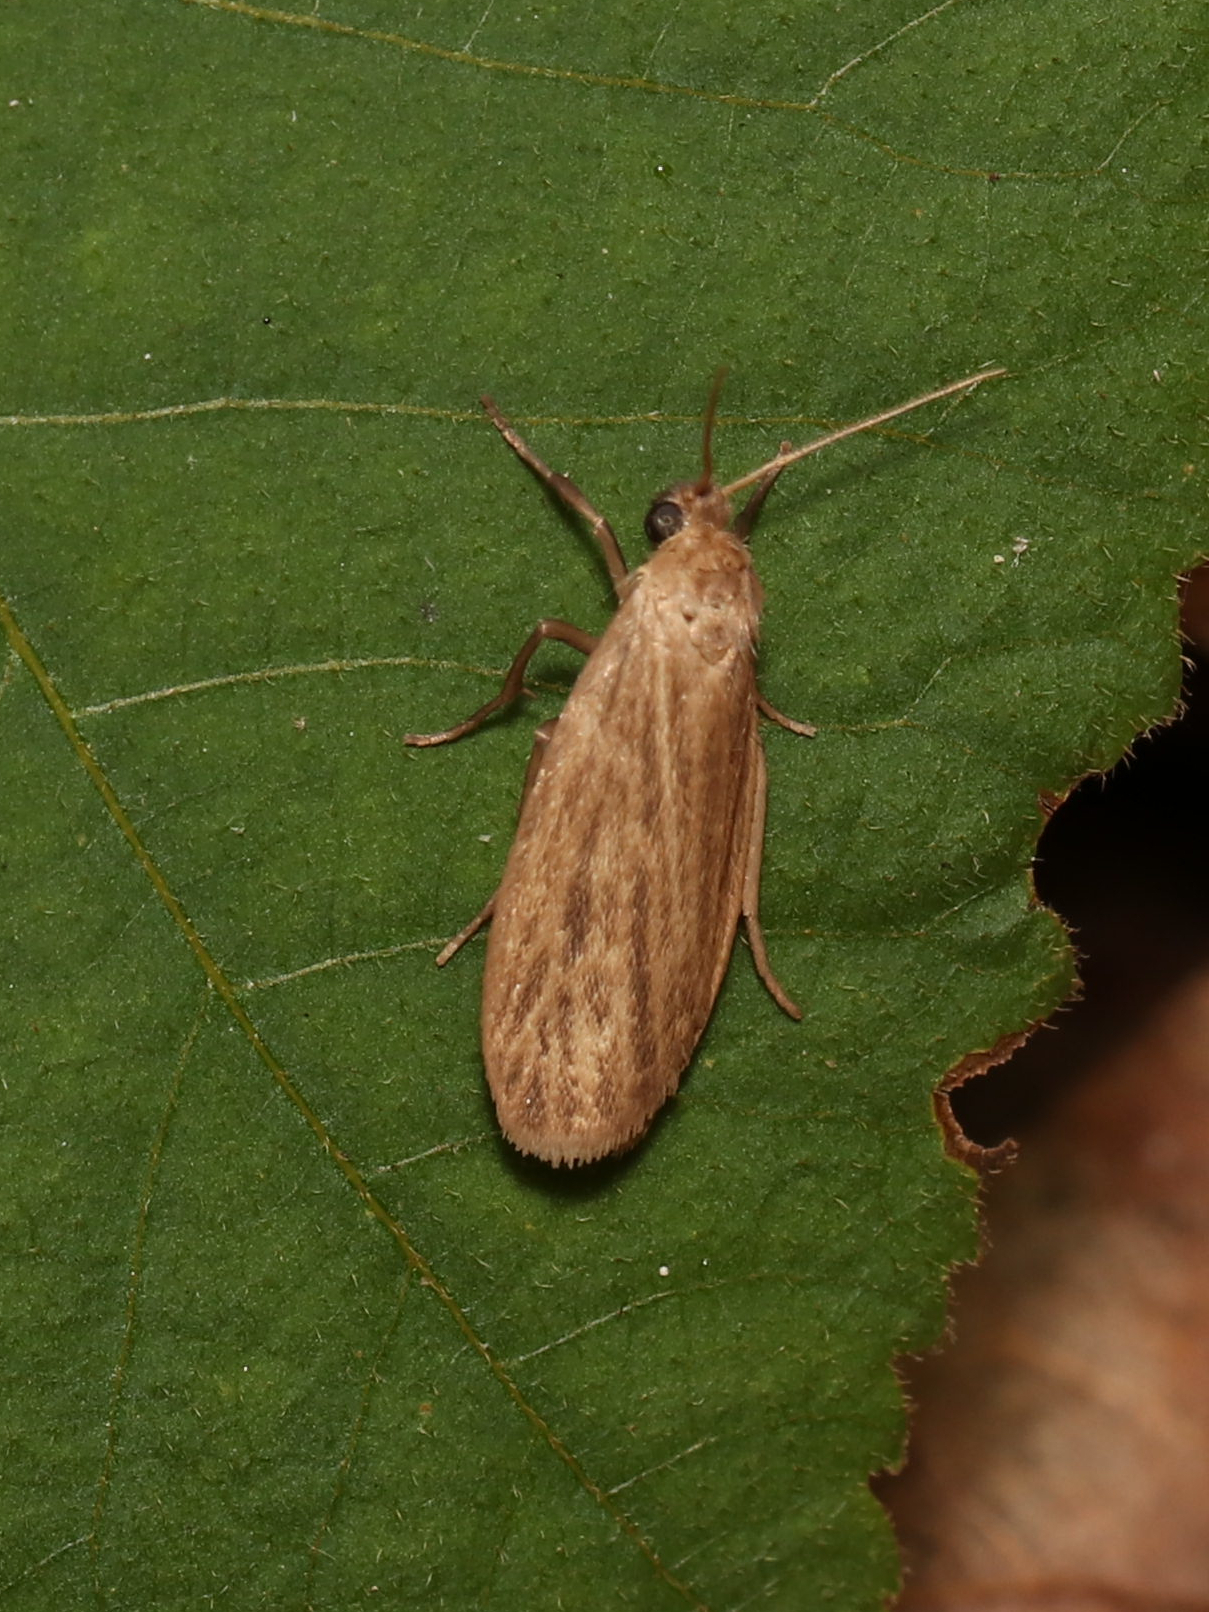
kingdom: Animalia
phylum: Arthropoda
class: Insecta
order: Lepidoptera
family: Erebidae
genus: Crambidia
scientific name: Crambidia pallida
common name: Pale lichen moth
